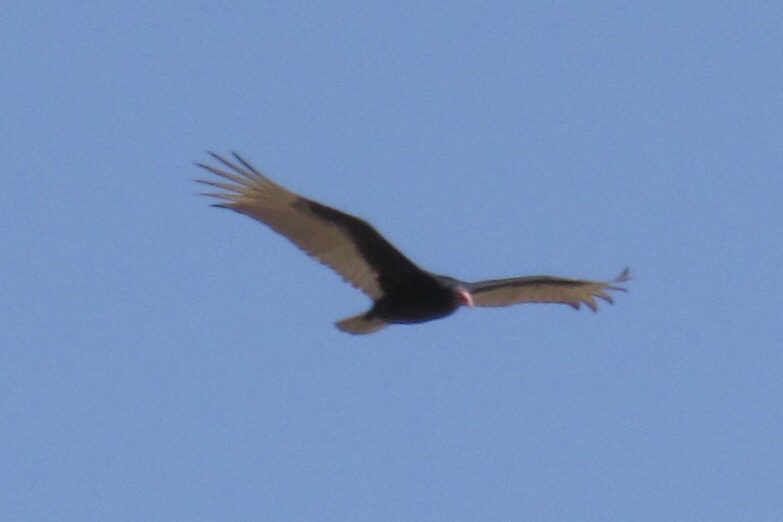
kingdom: Animalia
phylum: Chordata
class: Aves
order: Accipitriformes
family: Cathartidae
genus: Cathartes
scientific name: Cathartes aura
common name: Turkey vulture
